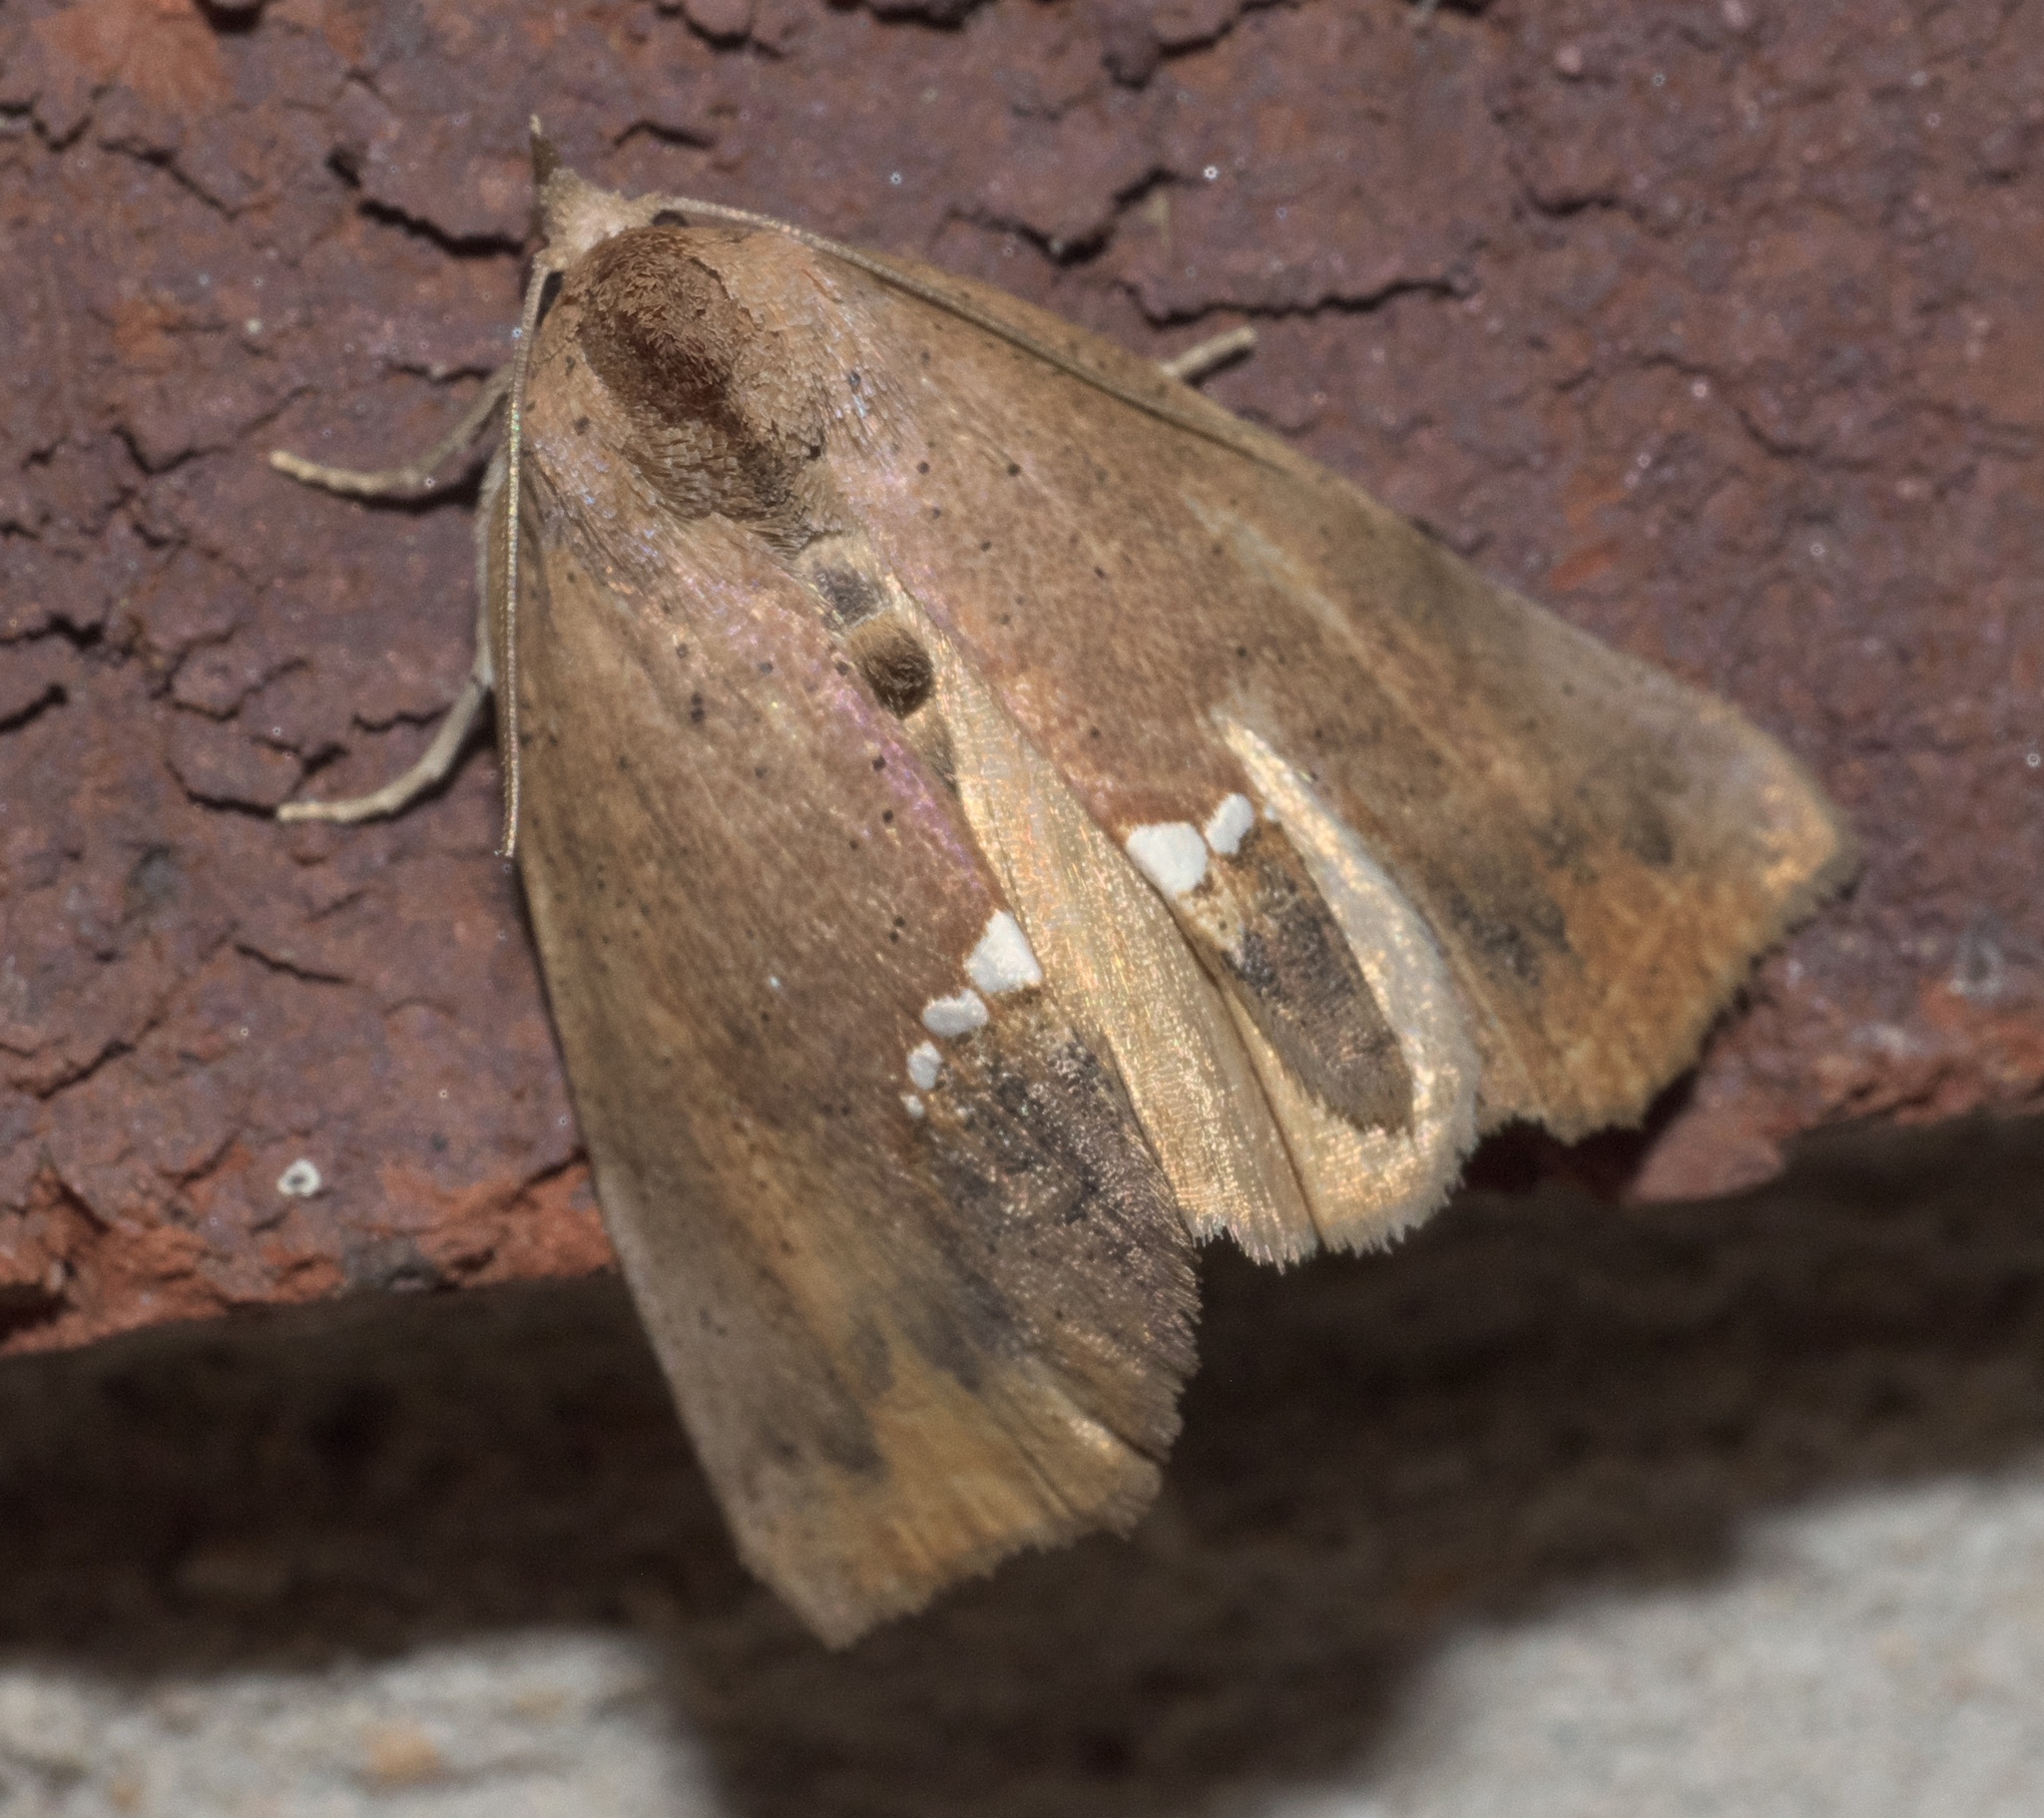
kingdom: Animalia
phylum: Arthropoda
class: Insecta
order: Lepidoptera
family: Erebidae
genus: Hypsoropha
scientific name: Hypsoropha hormos
